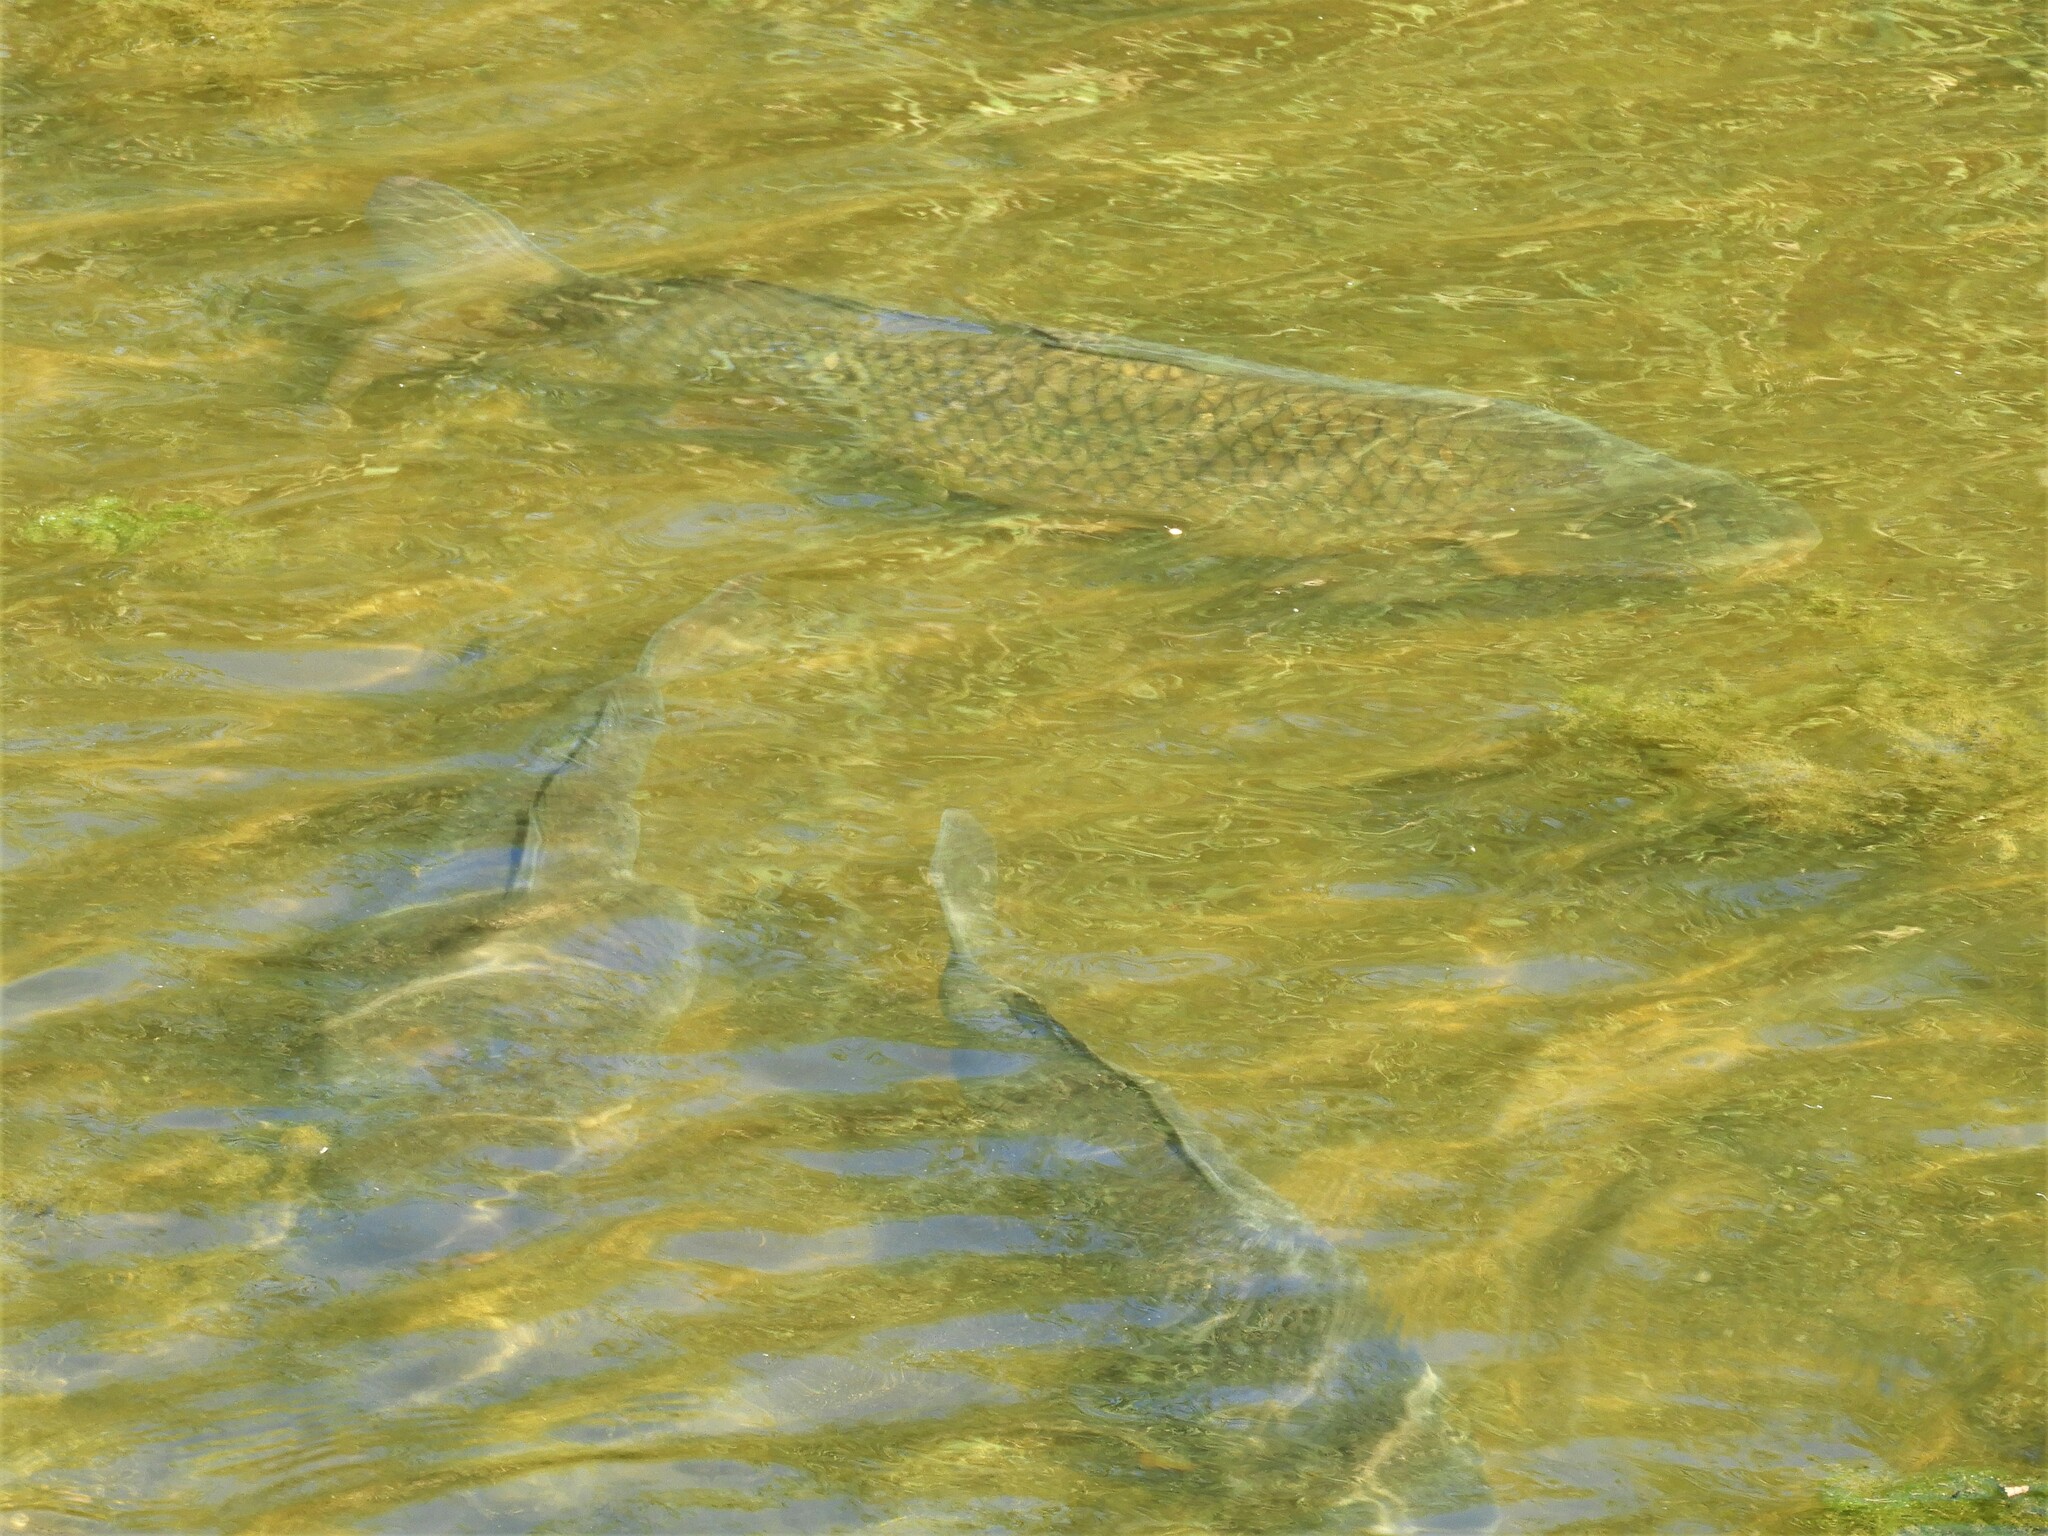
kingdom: Animalia
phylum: Chordata
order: Cypriniformes
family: Cyprinidae
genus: Cyprinus
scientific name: Cyprinus carpio
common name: Common carp
